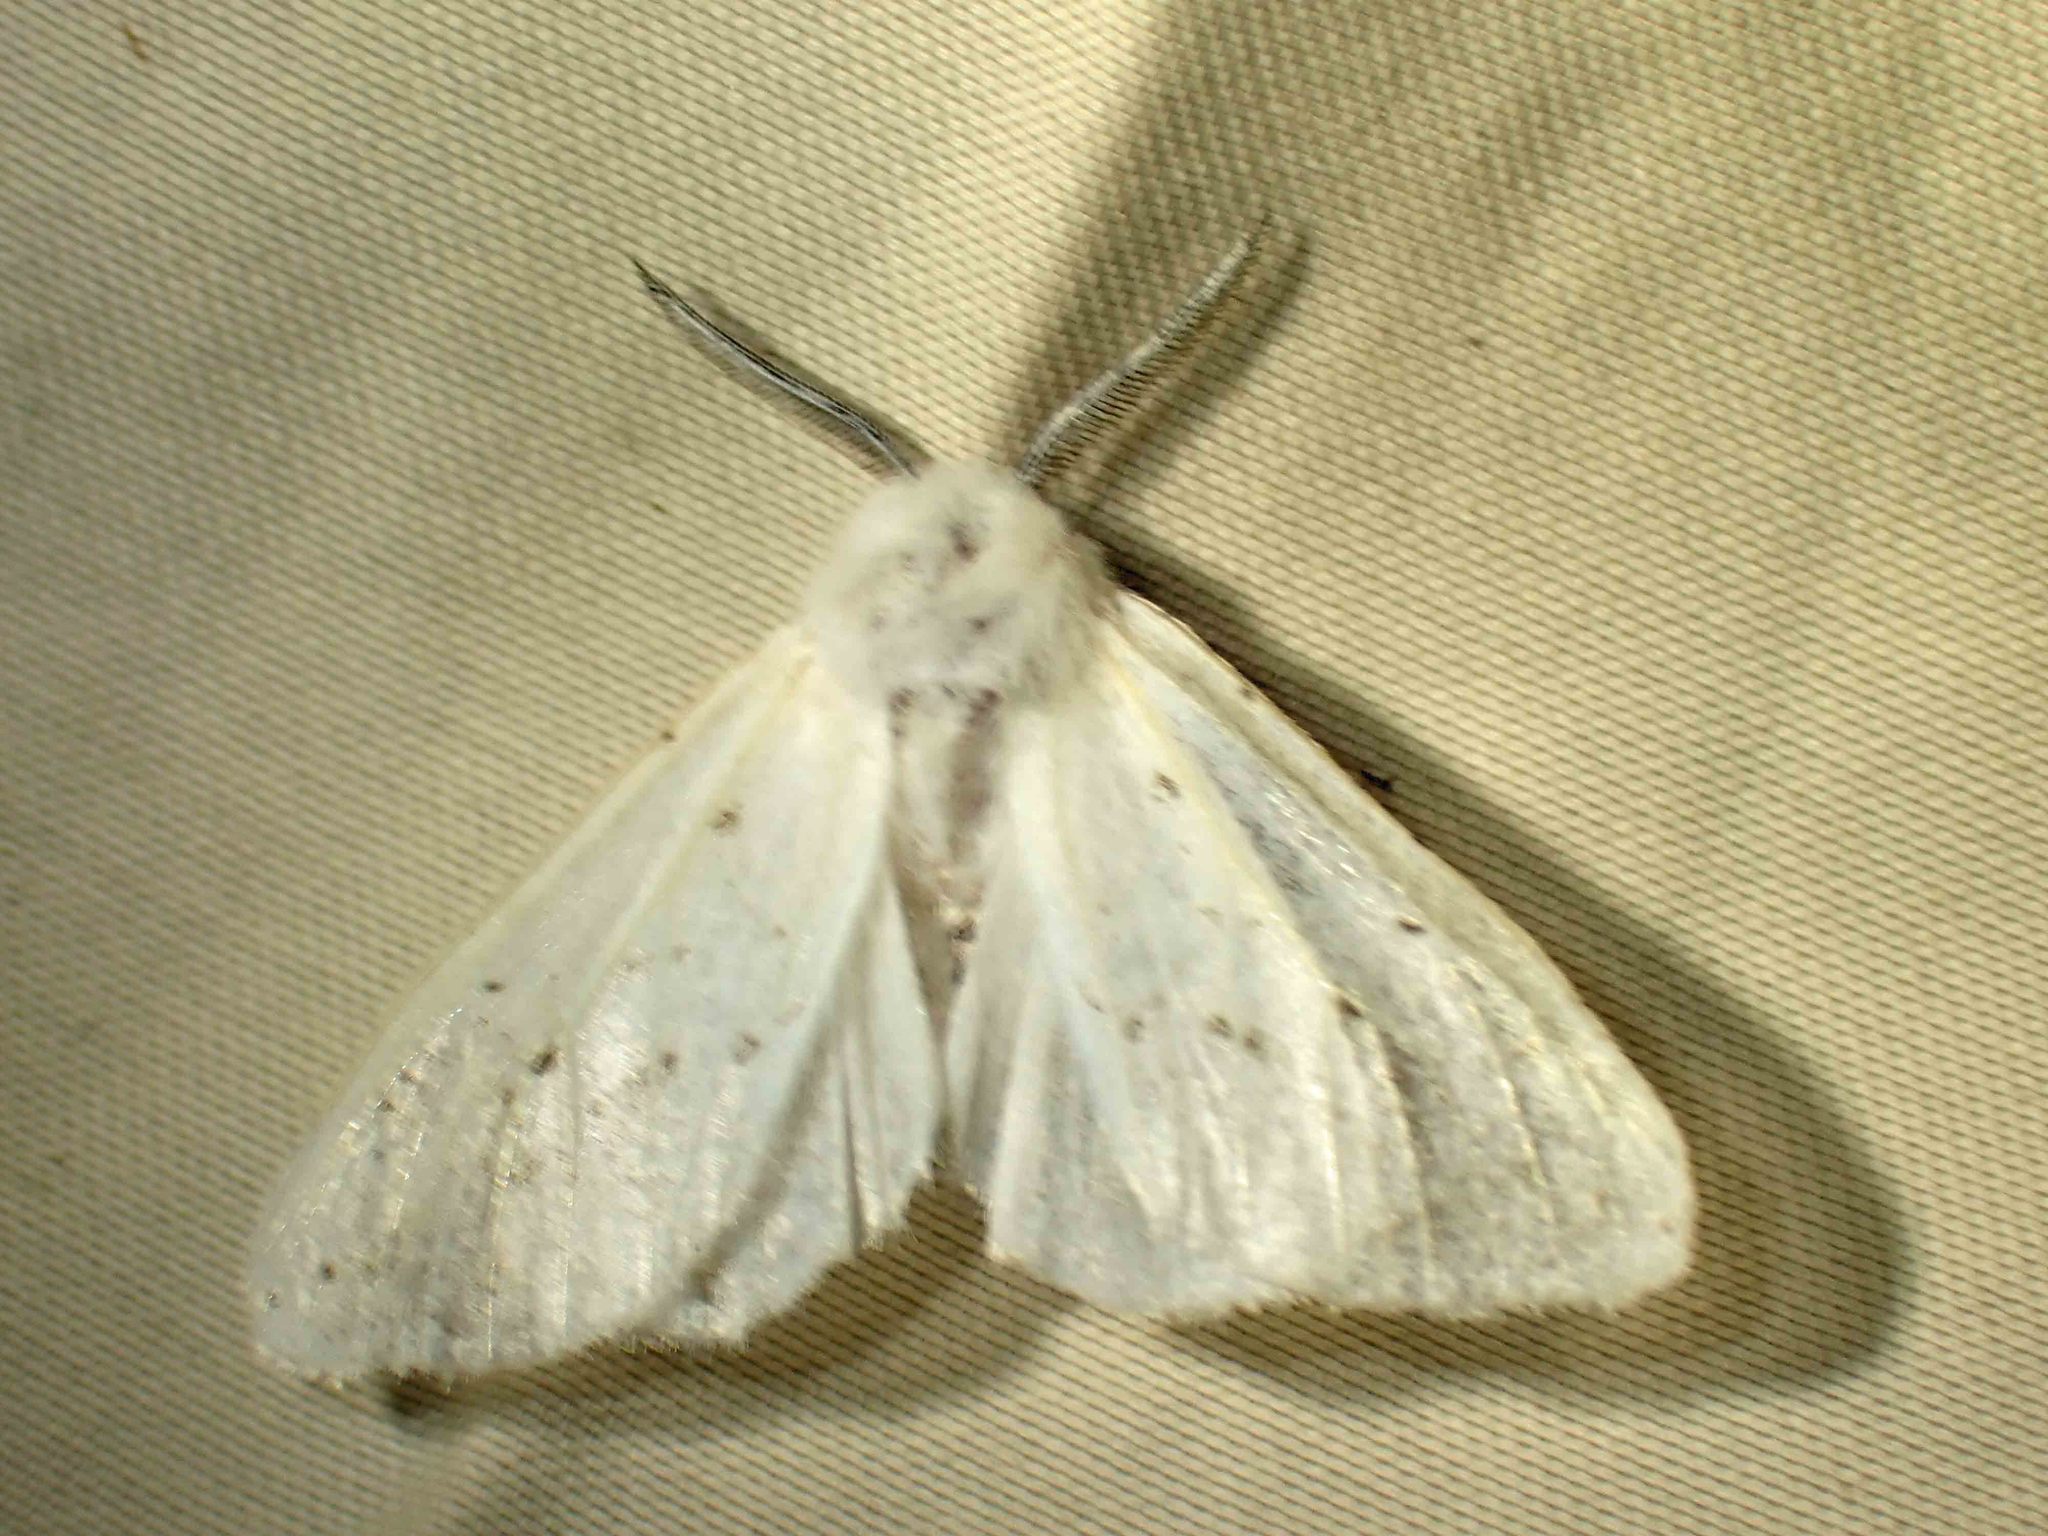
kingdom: Animalia
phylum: Arthropoda
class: Insecta
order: Lepidoptera
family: Erebidae
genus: Spilosoma
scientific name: Spilosoma congrua
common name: Agreeable tiger moth
